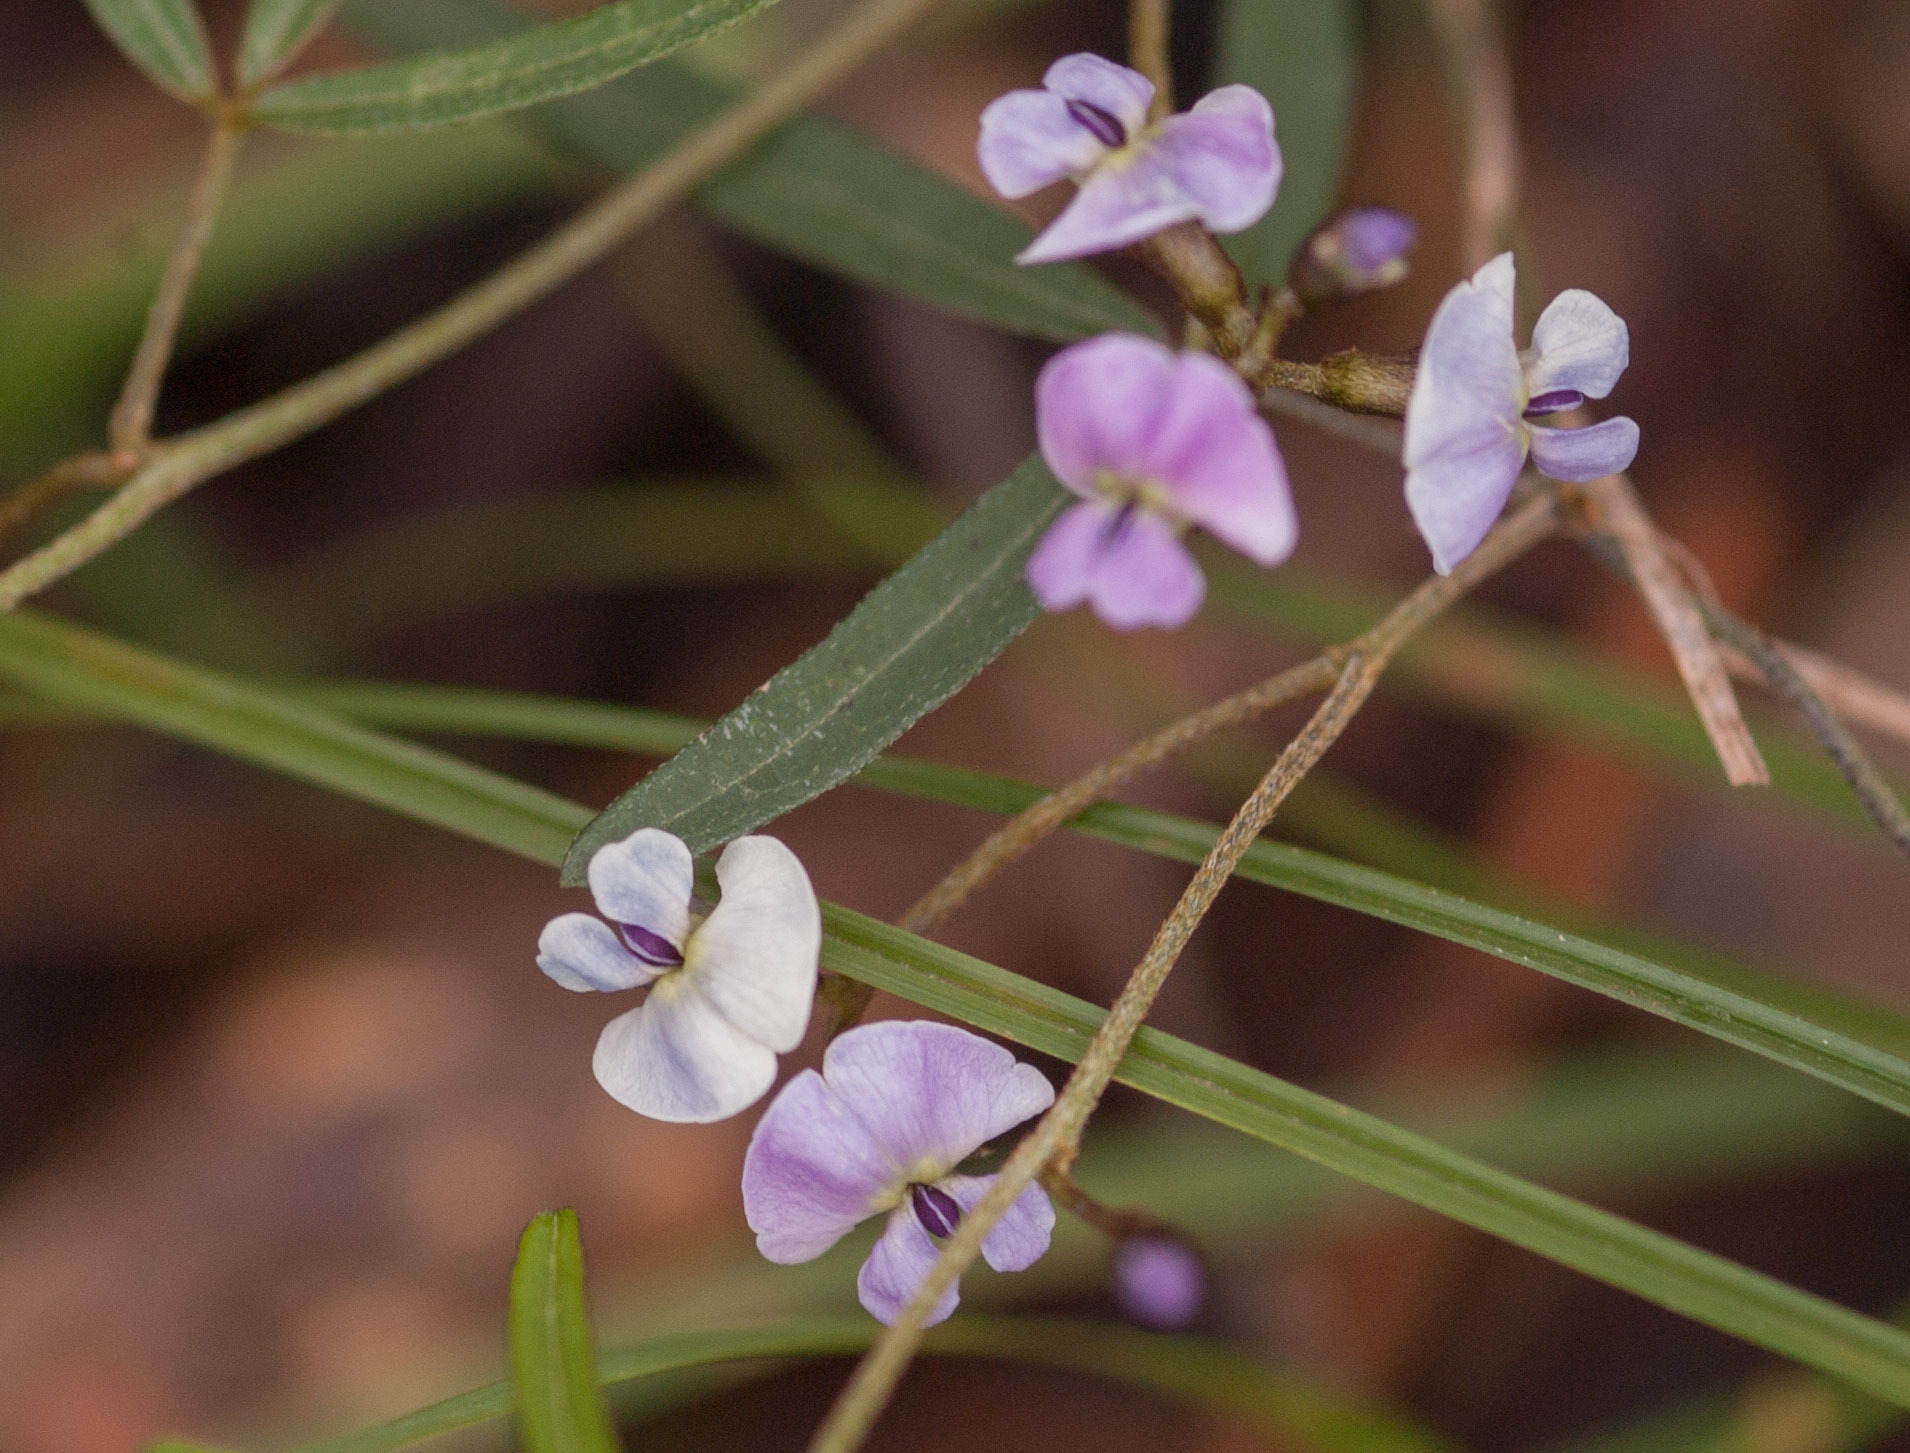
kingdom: Plantae
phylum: Tracheophyta
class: Magnoliopsida
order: Fabales
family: Fabaceae
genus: Glycine
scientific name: Glycine clandestina
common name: Twining glycine
